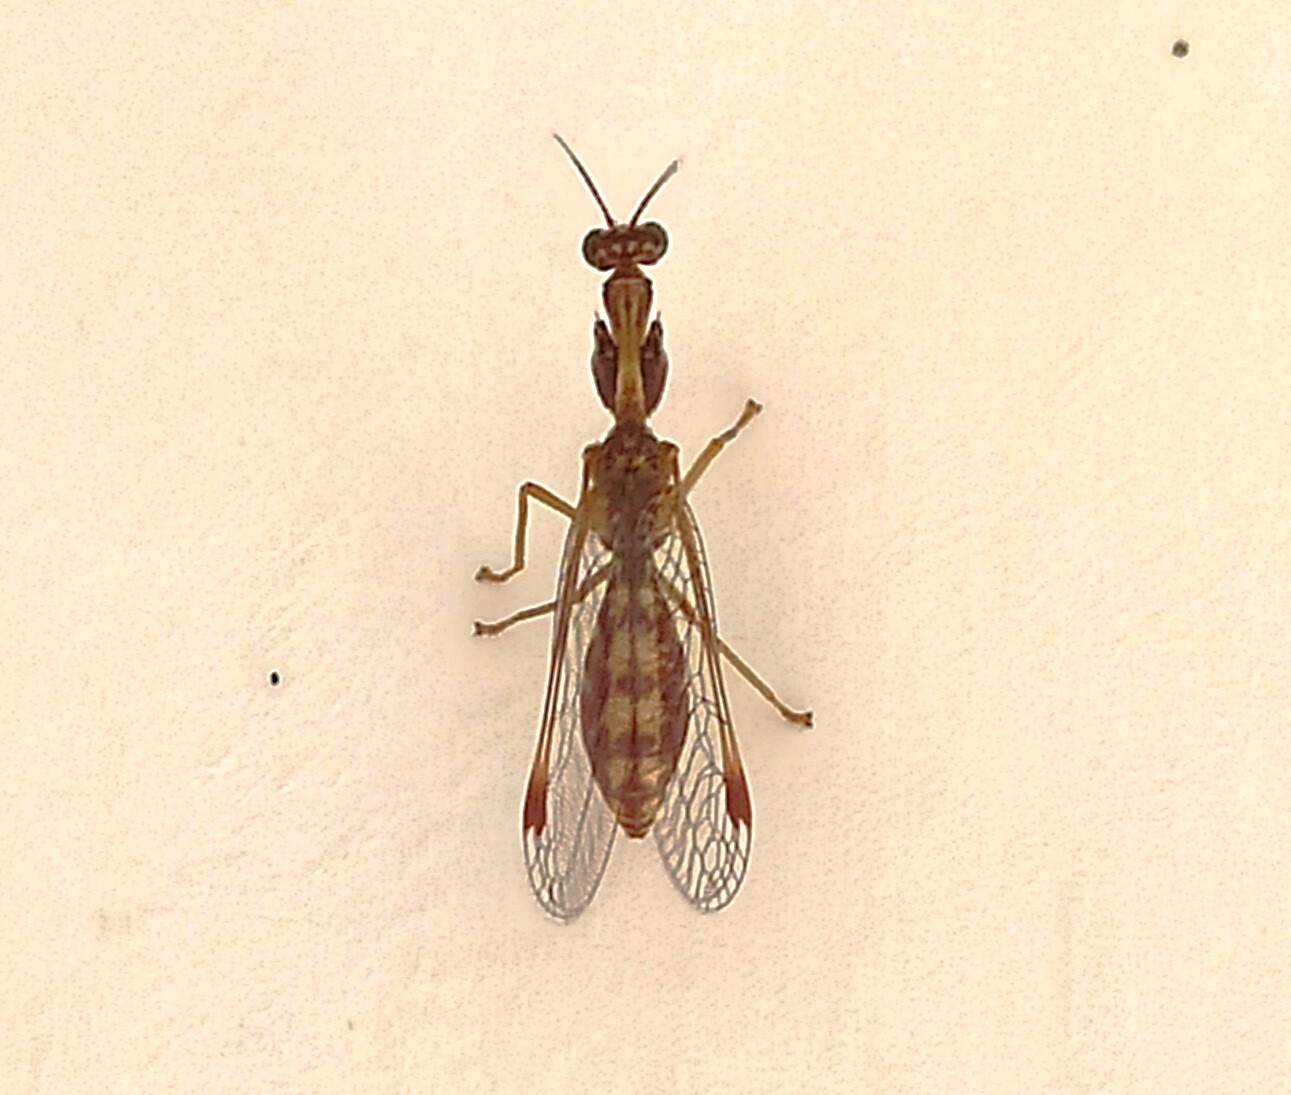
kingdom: Animalia
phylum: Arthropoda
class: Insecta
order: Neuroptera
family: Mantispidae
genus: Mantispa
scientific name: Mantispa styriaca
